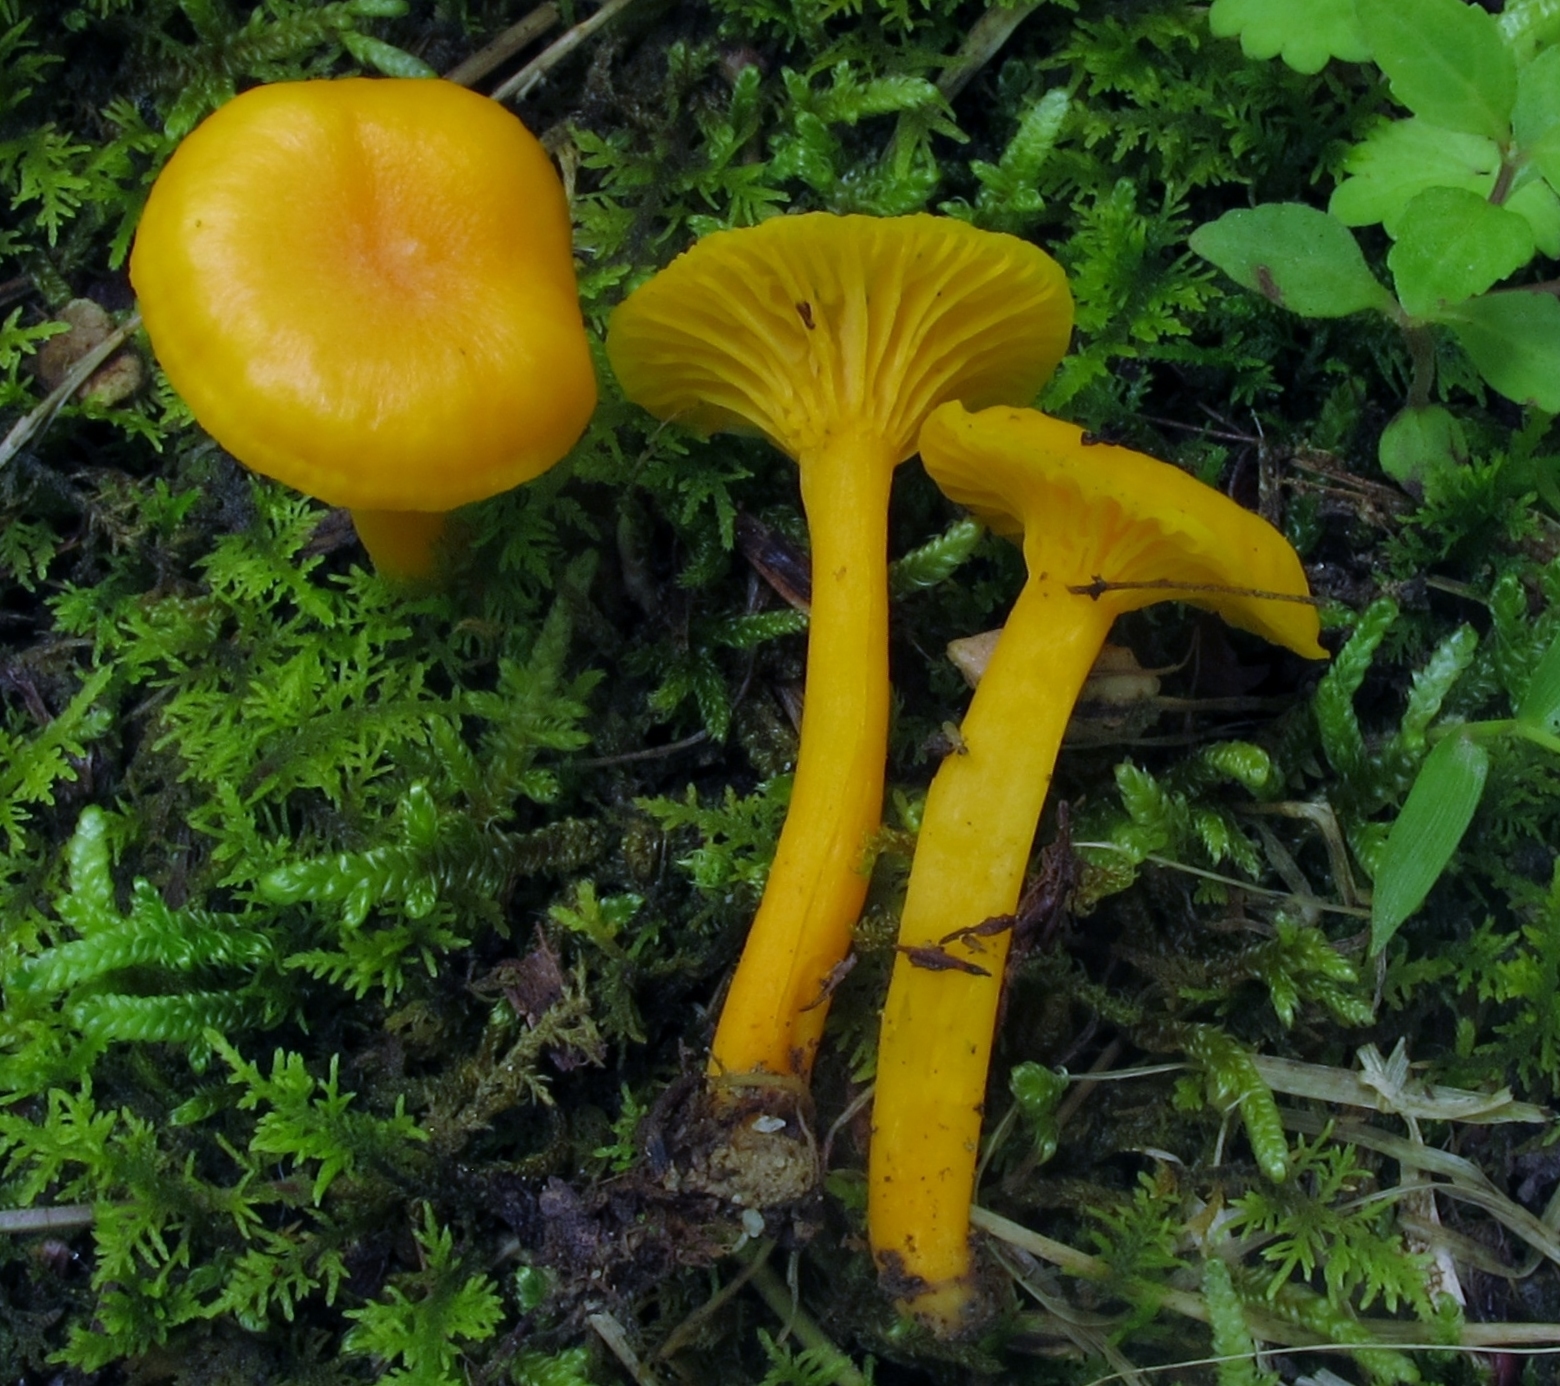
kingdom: Fungi
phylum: Basidiomycota
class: Agaricomycetes
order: Cantharellales
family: Hydnaceae
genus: Cantharellus
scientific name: Cantharellus minor
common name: Small chanterelle
